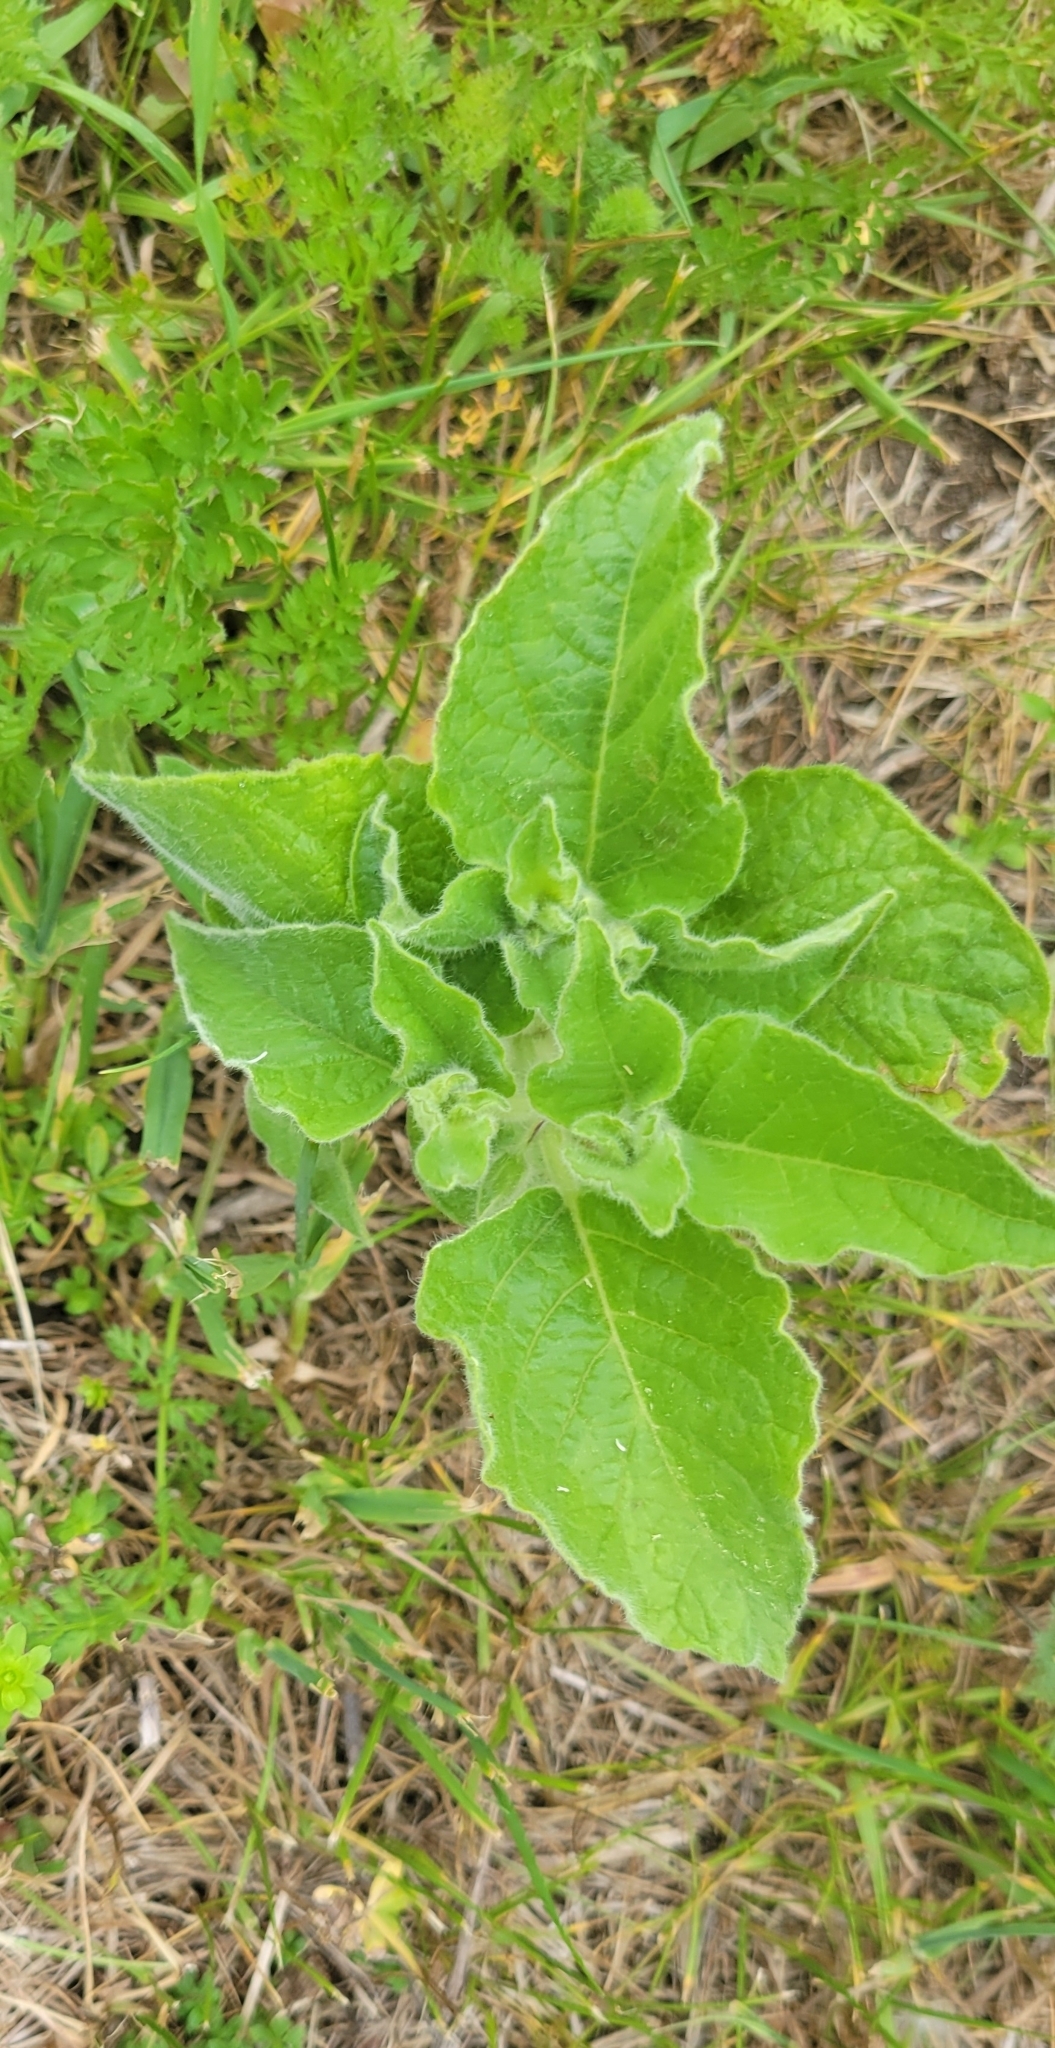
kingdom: Plantae
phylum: Tracheophyta
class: Magnoliopsida
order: Solanales
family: Solanaceae
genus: Physalis
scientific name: Physalis heterophylla
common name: Clammy ground-cherry
